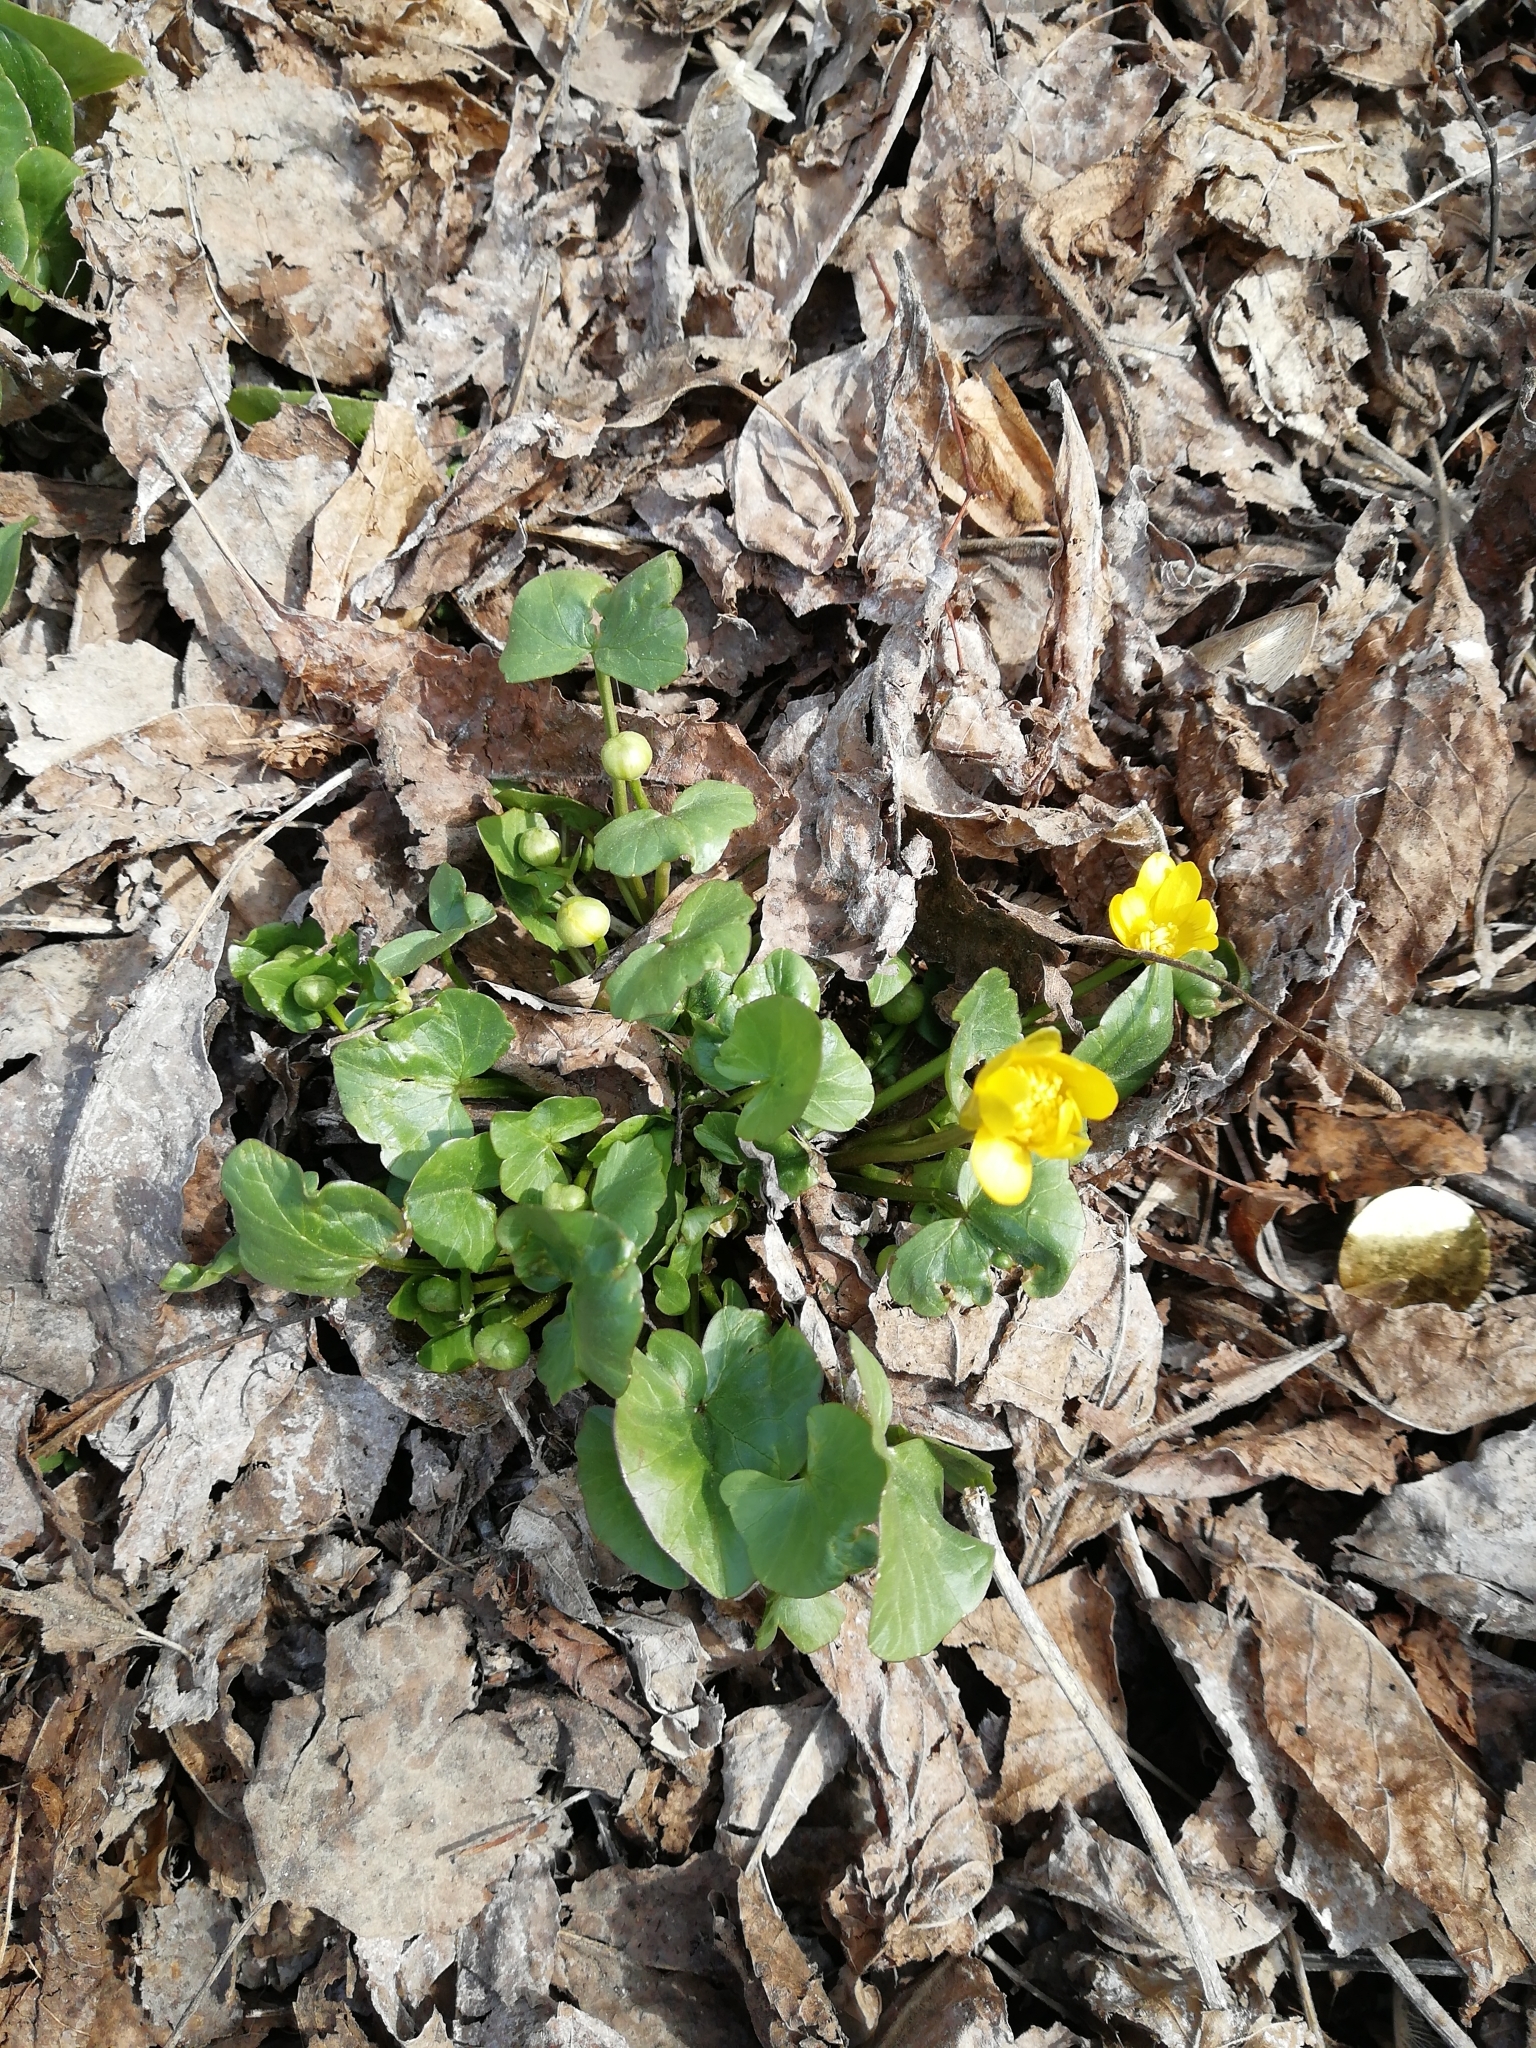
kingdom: Plantae
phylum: Tracheophyta
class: Magnoliopsida
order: Ranunculales
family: Ranunculaceae
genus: Ficaria
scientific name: Ficaria verna
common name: Lesser celandine
